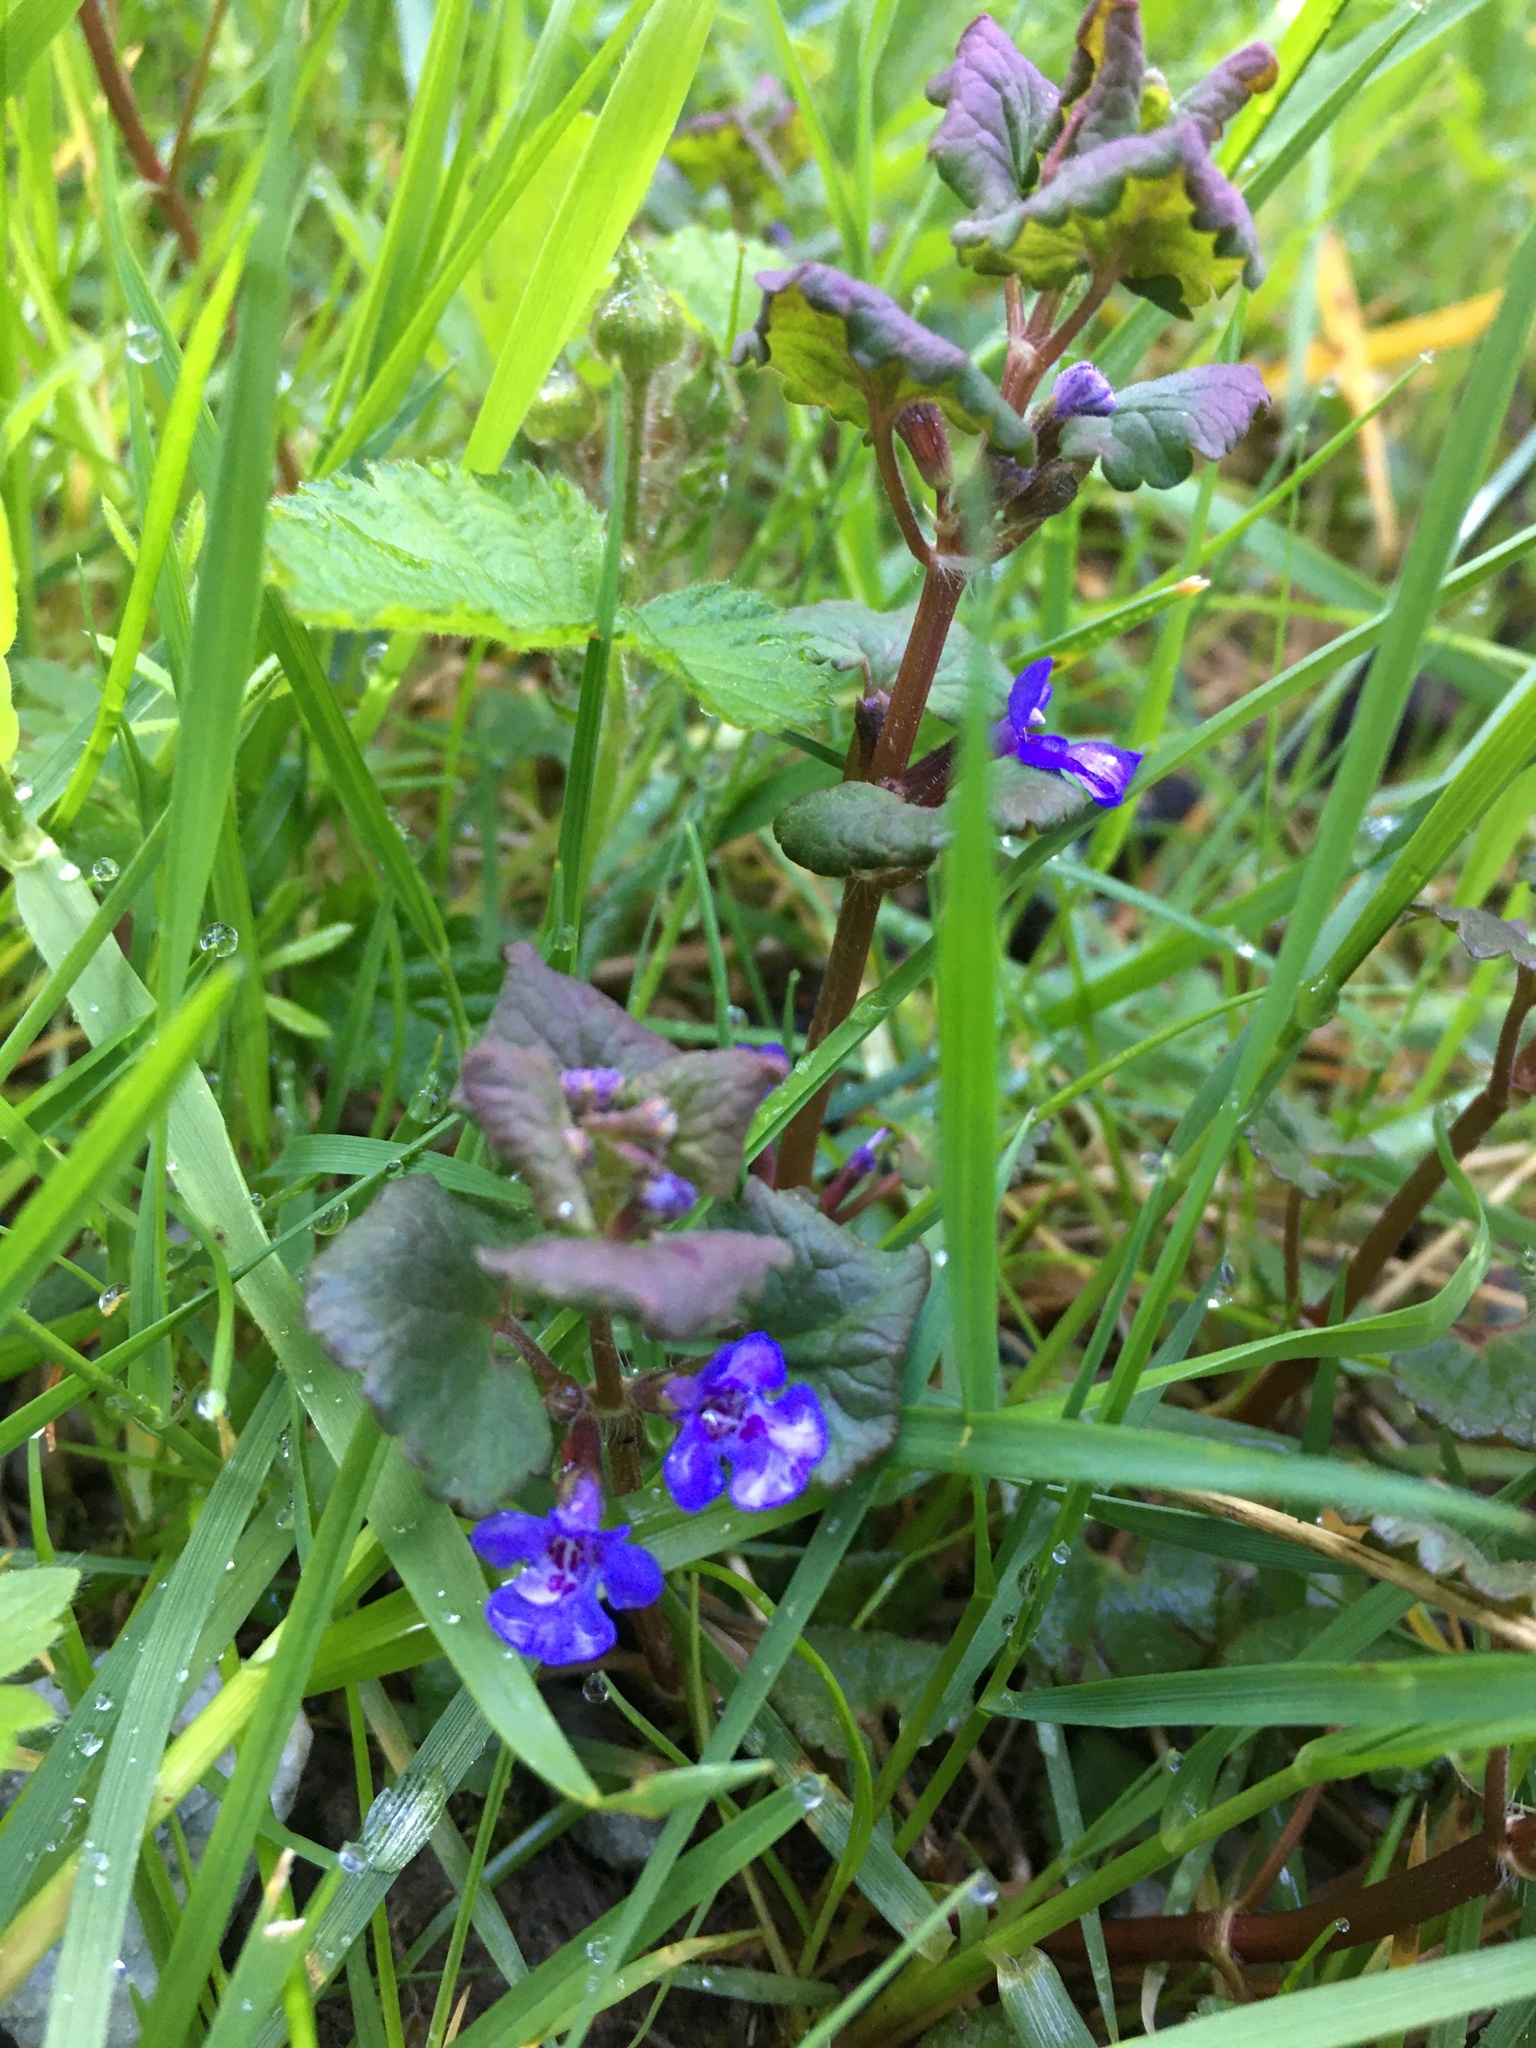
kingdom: Plantae
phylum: Tracheophyta
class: Magnoliopsida
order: Lamiales
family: Lamiaceae
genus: Glechoma
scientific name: Glechoma hederacea
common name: Ground ivy
